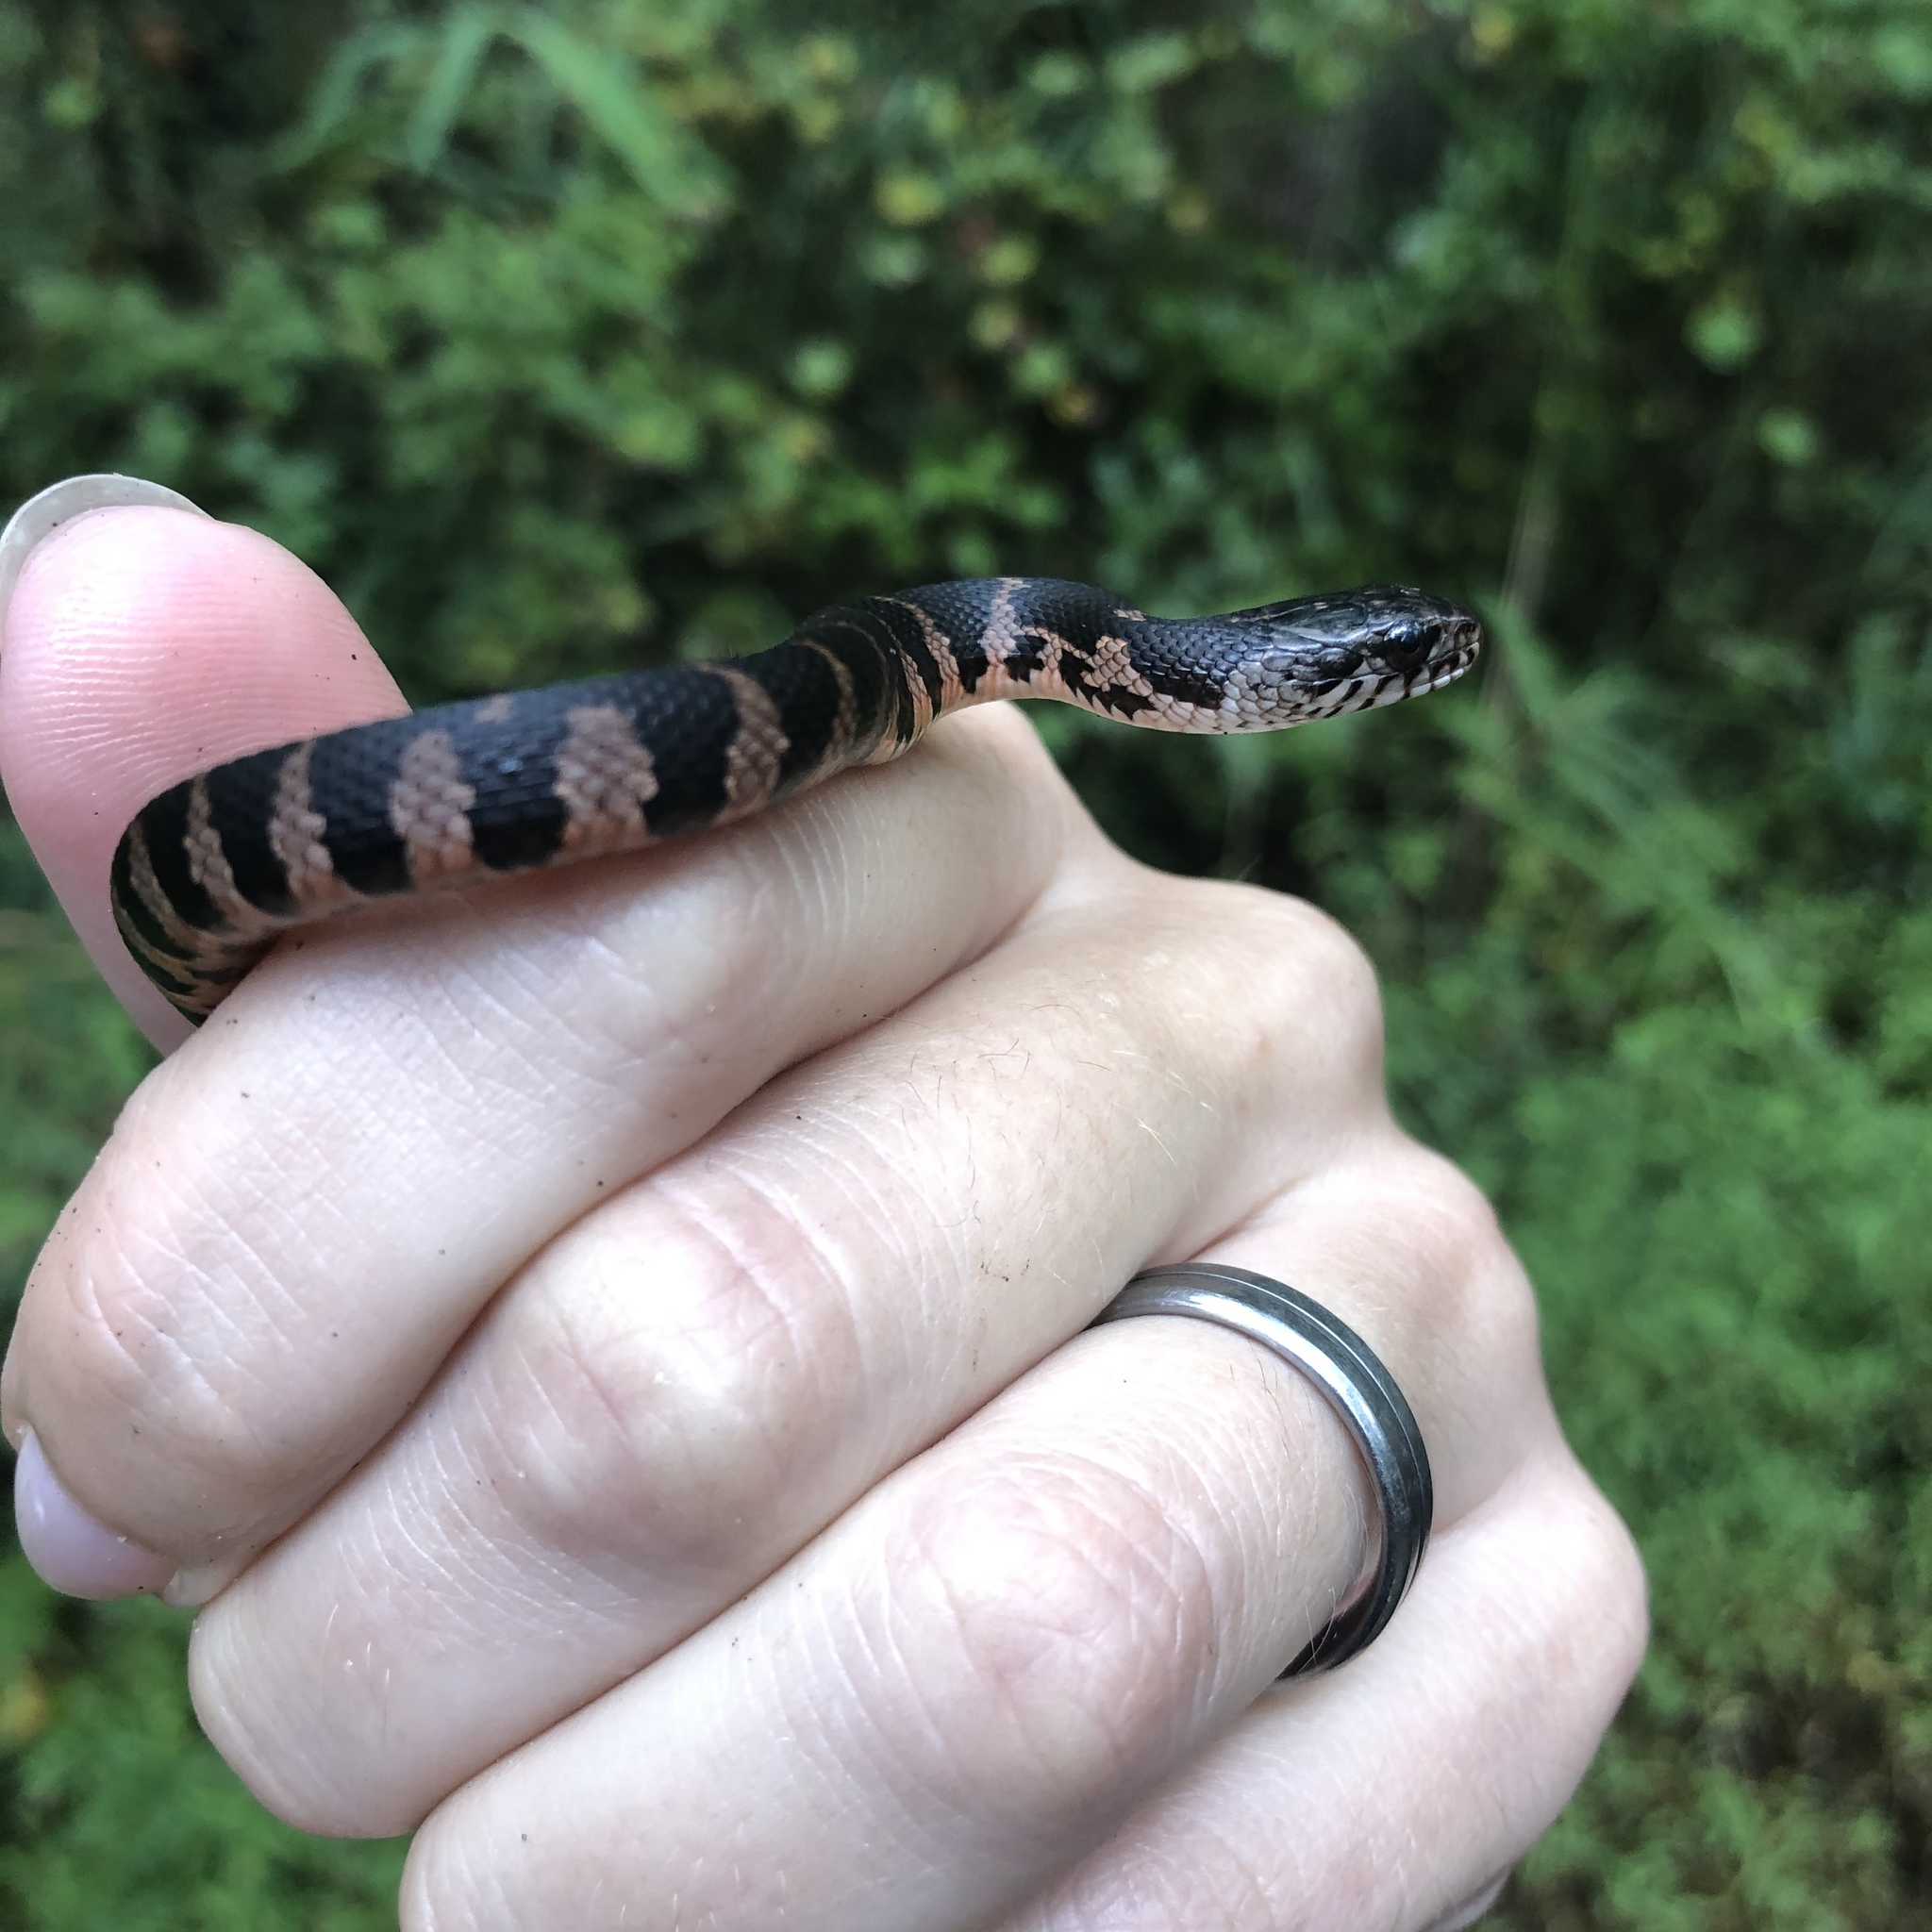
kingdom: Animalia
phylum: Chordata
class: Squamata
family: Colubridae
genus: Nerodia
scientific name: Nerodia sipedon
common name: Northern water snake
